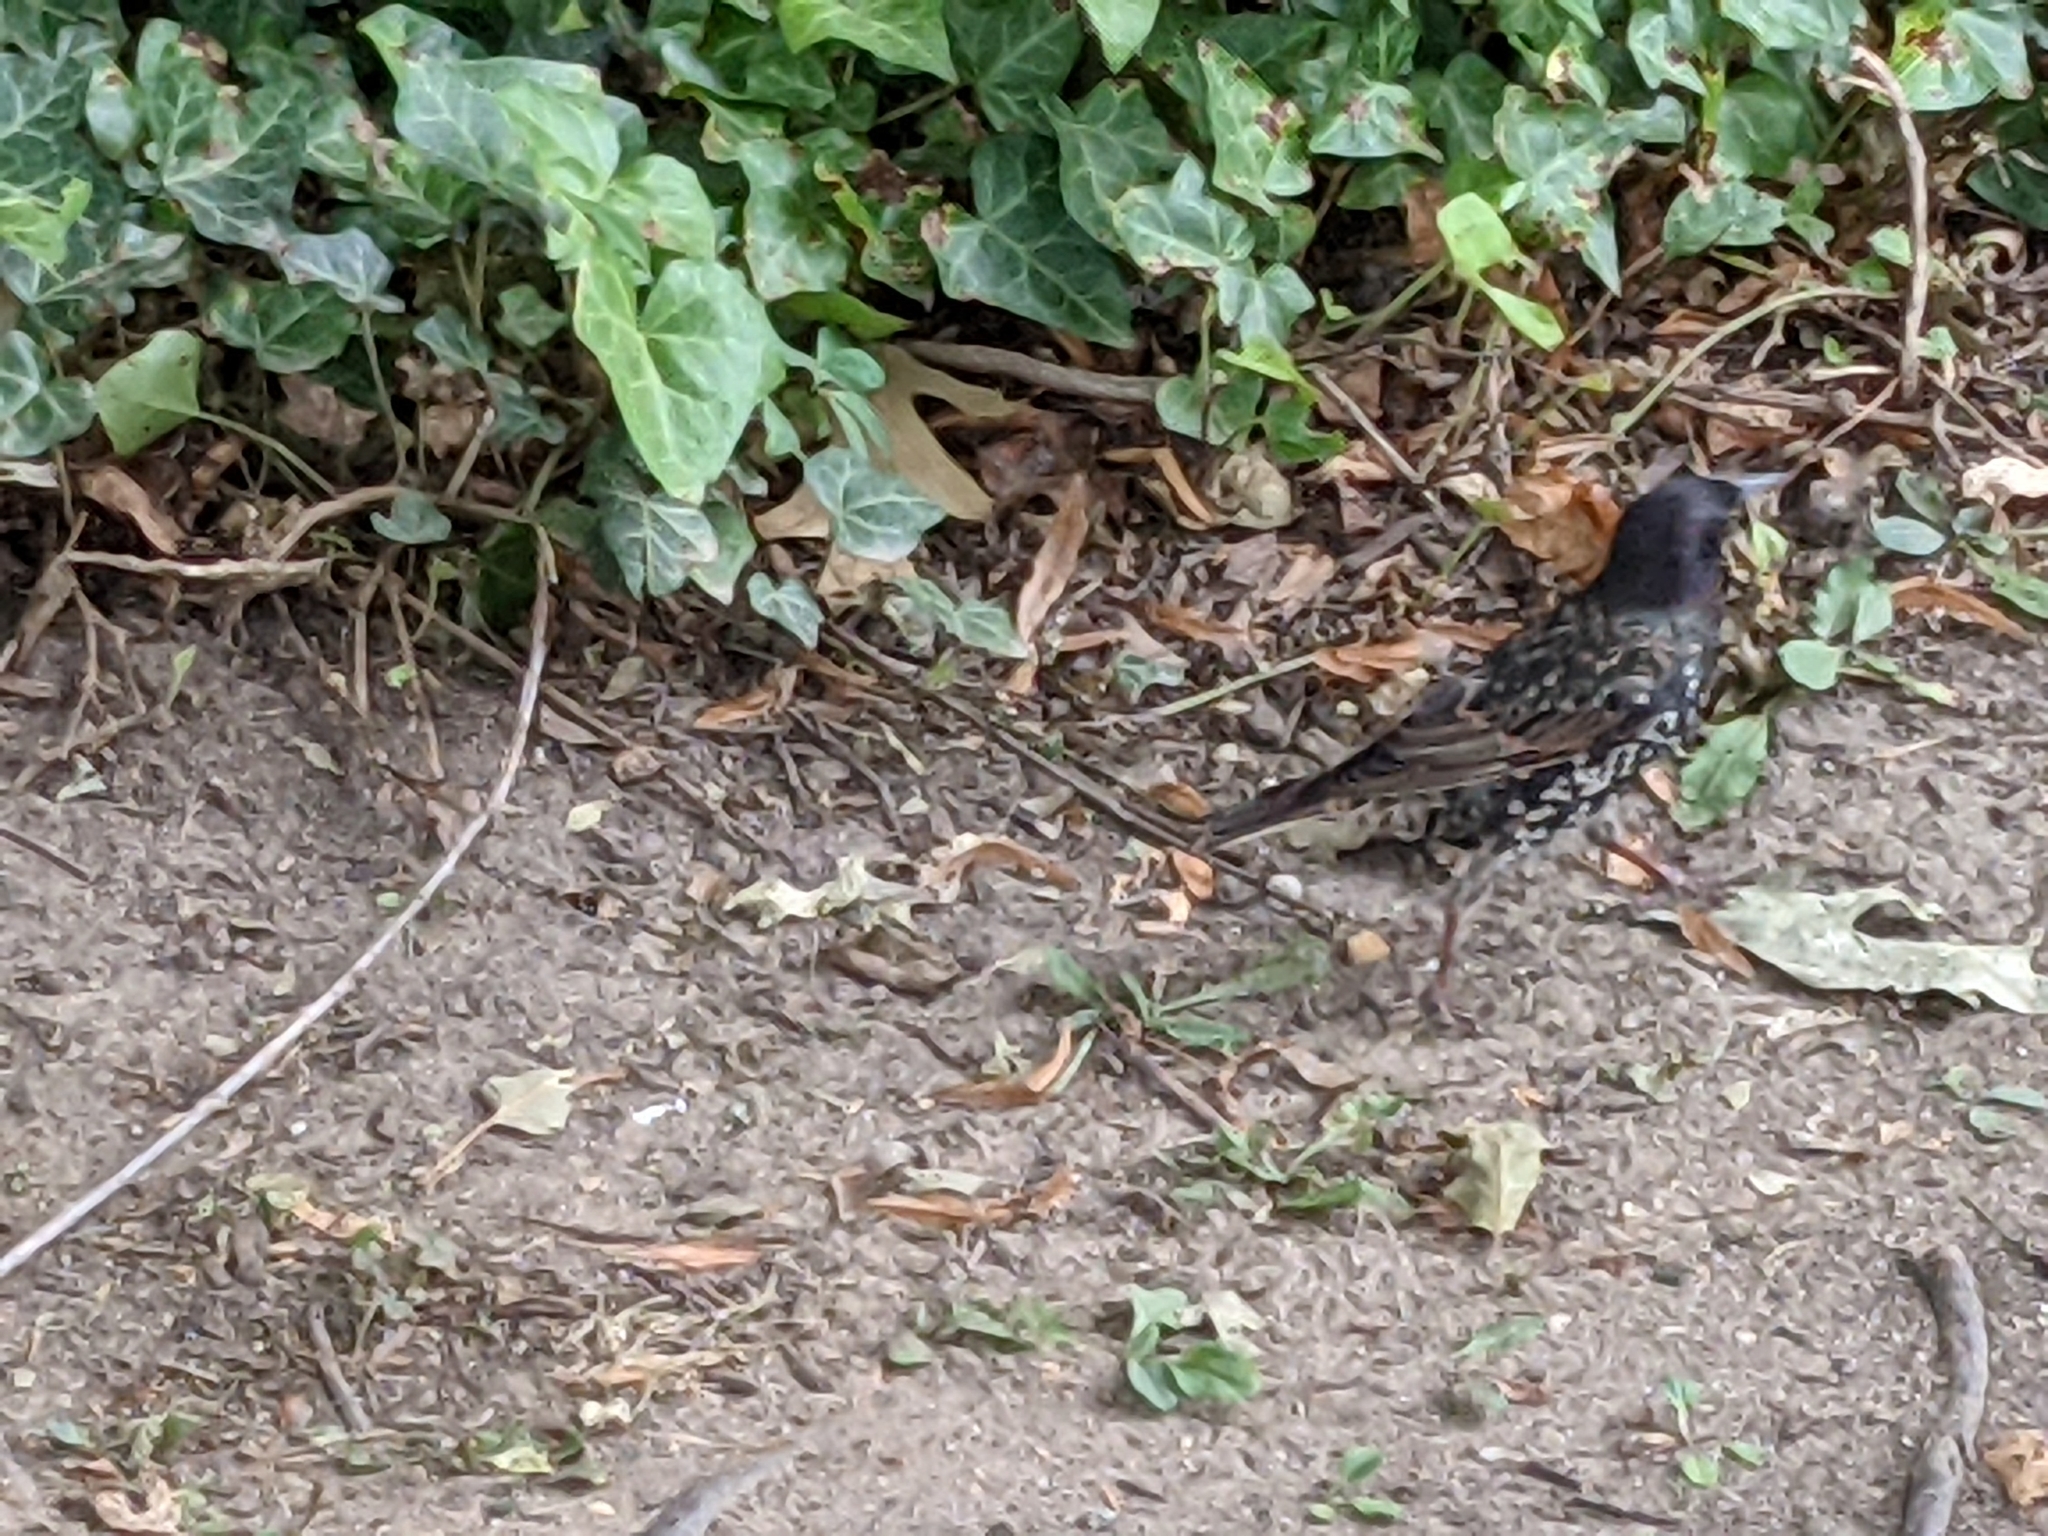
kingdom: Animalia
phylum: Chordata
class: Aves
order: Passeriformes
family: Sturnidae
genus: Sturnus
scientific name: Sturnus vulgaris
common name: Common starling
